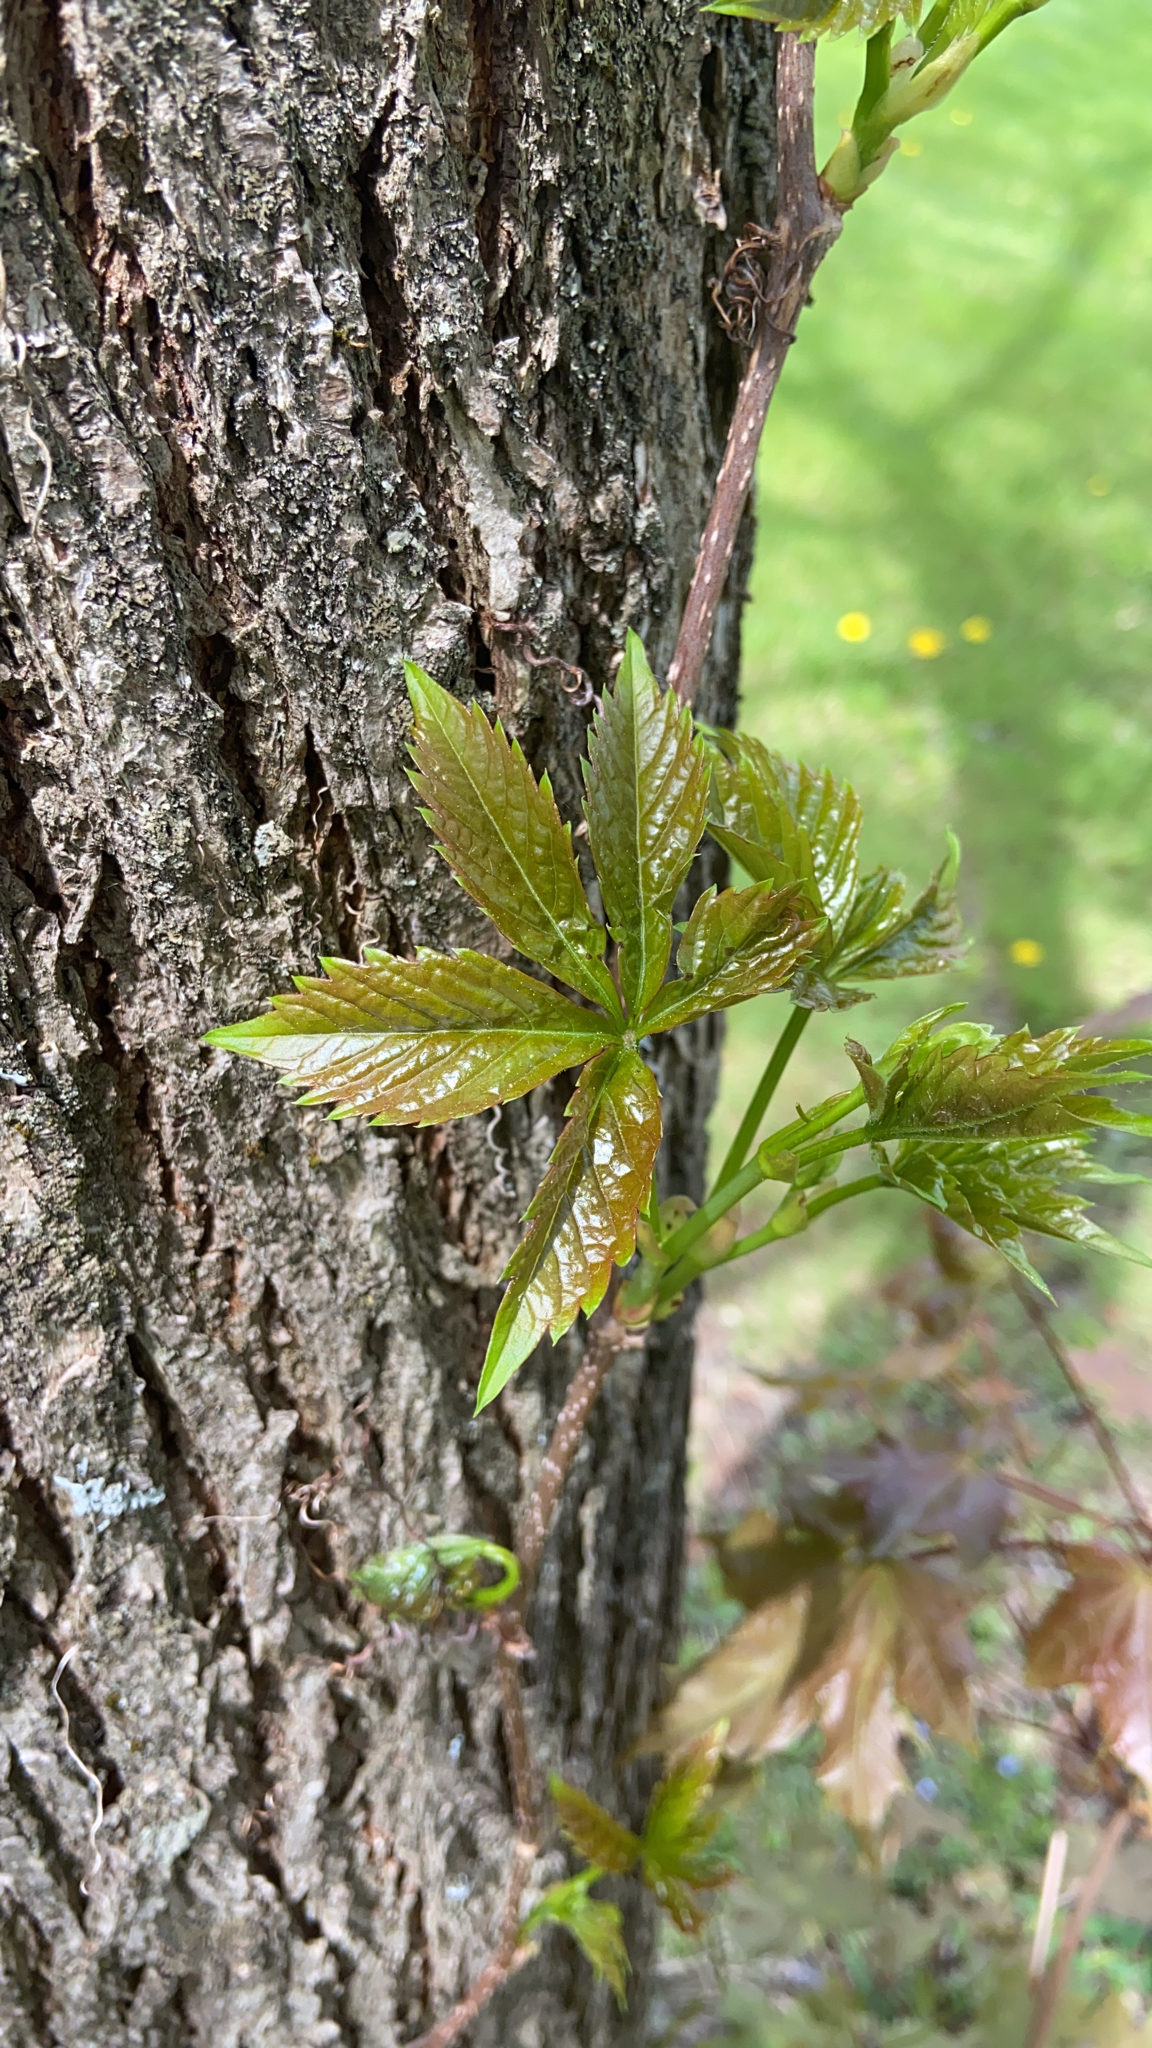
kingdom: Plantae
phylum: Tracheophyta
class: Magnoliopsida
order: Vitales
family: Vitaceae
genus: Parthenocissus
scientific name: Parthenocissus quinquefolia
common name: Virginia-creeper
